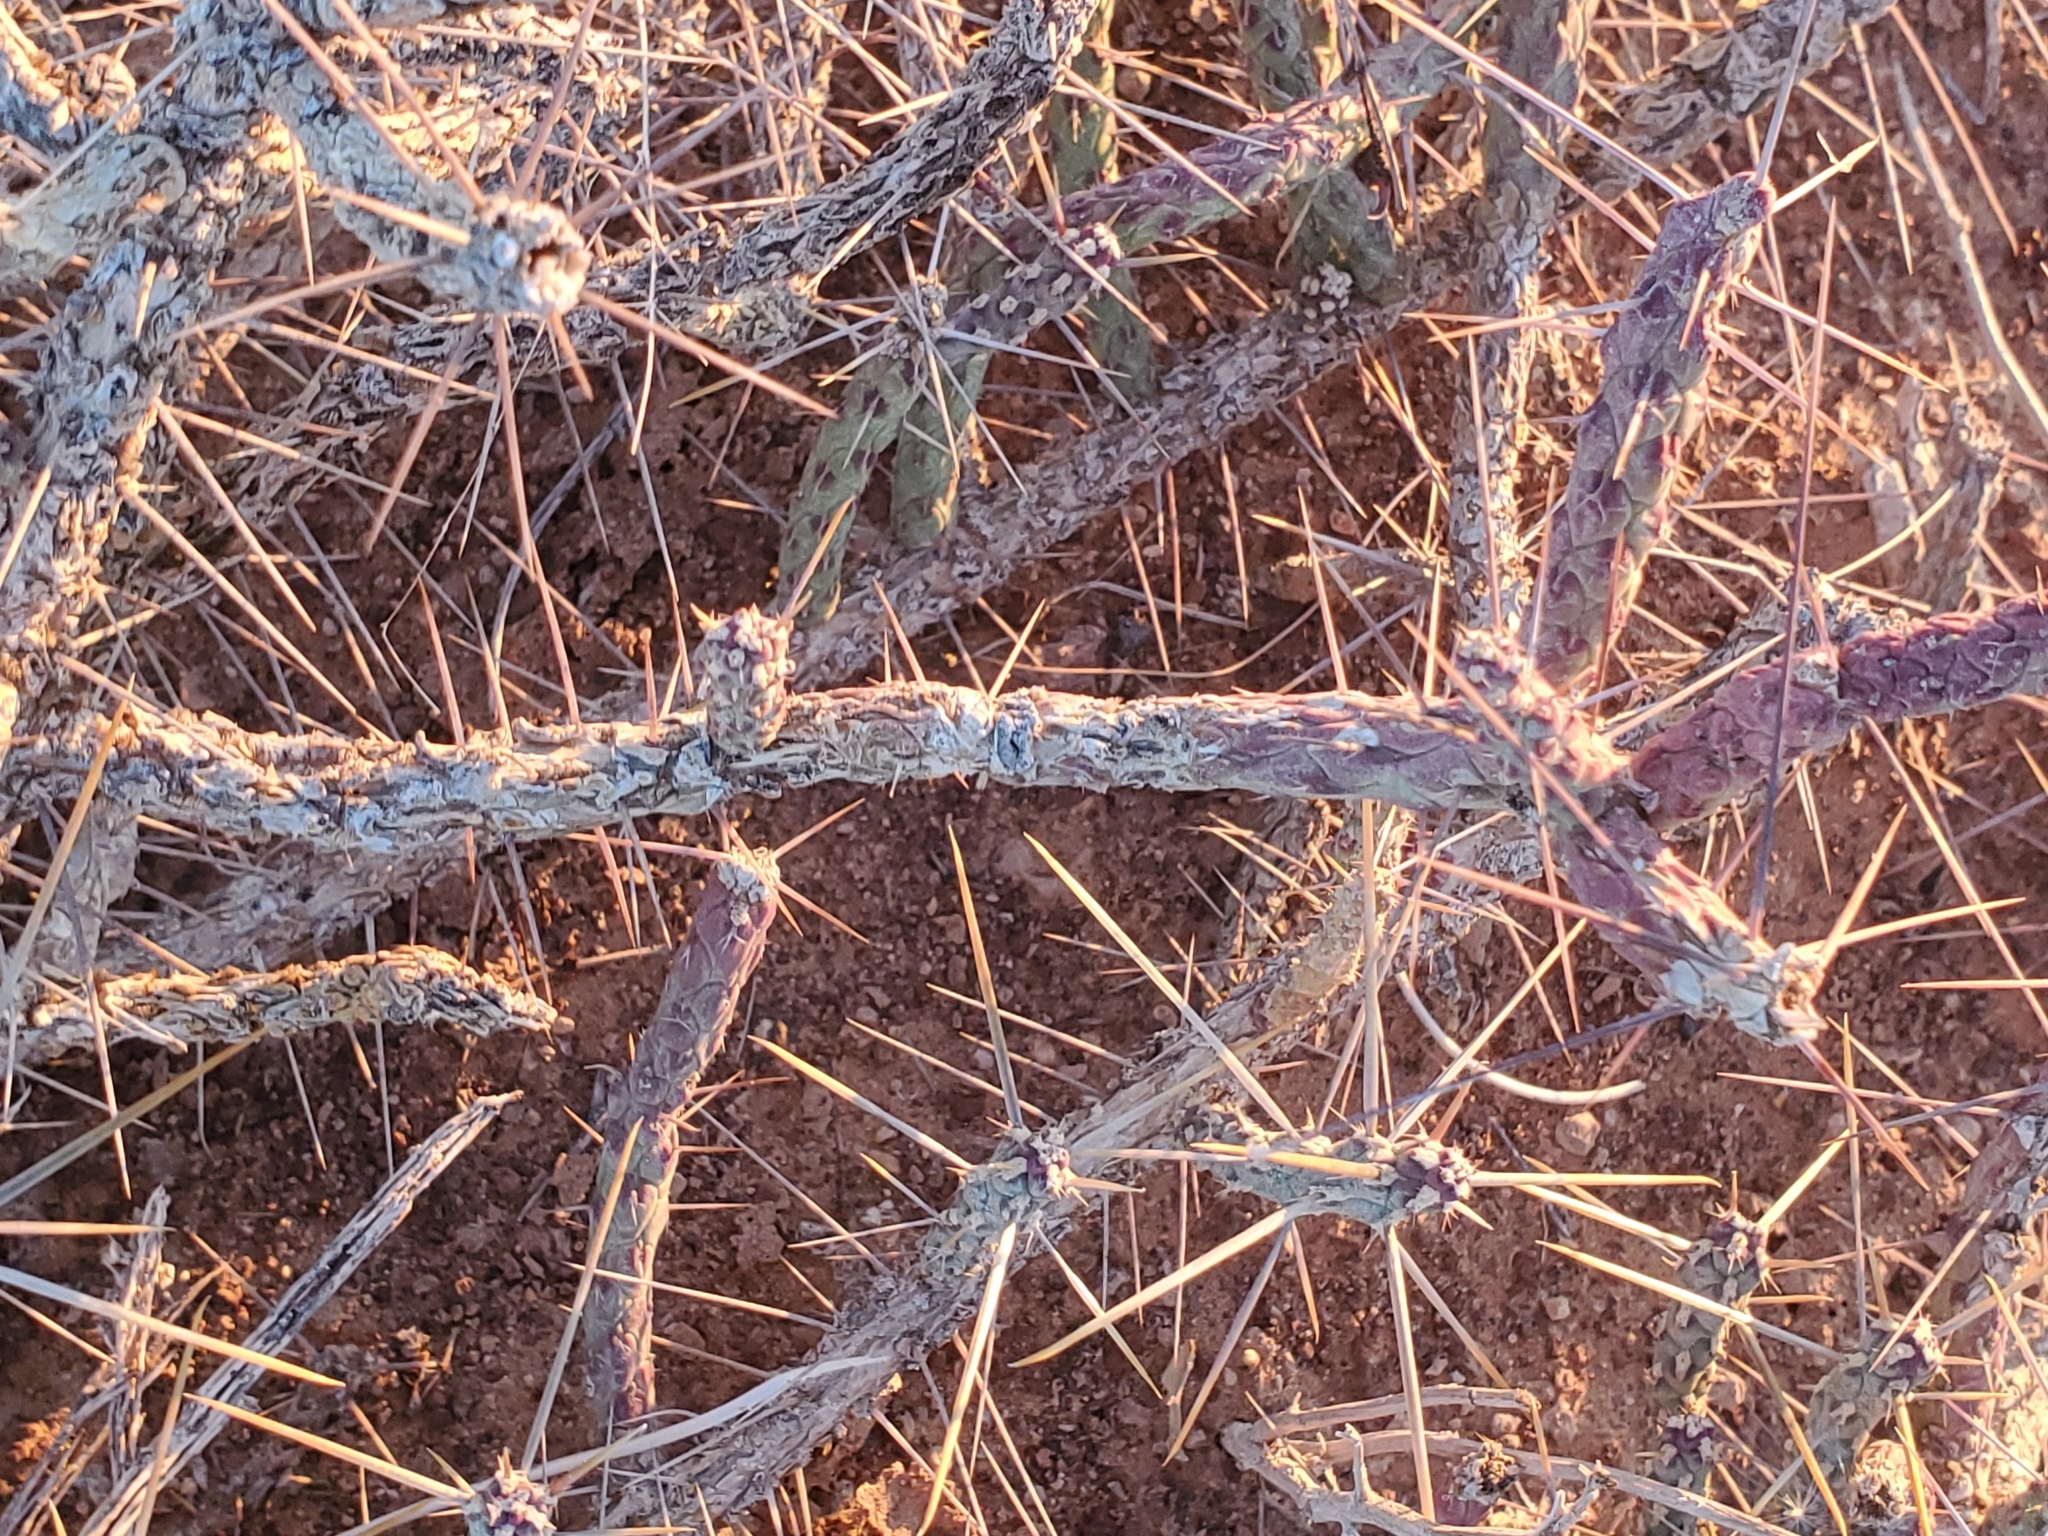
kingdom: Plantae
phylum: Tracheophyta
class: Magnoliopsida
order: Caryophyllales
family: Cactaceae
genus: Cylindropuntia
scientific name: Cylindropuntia ramosissima
